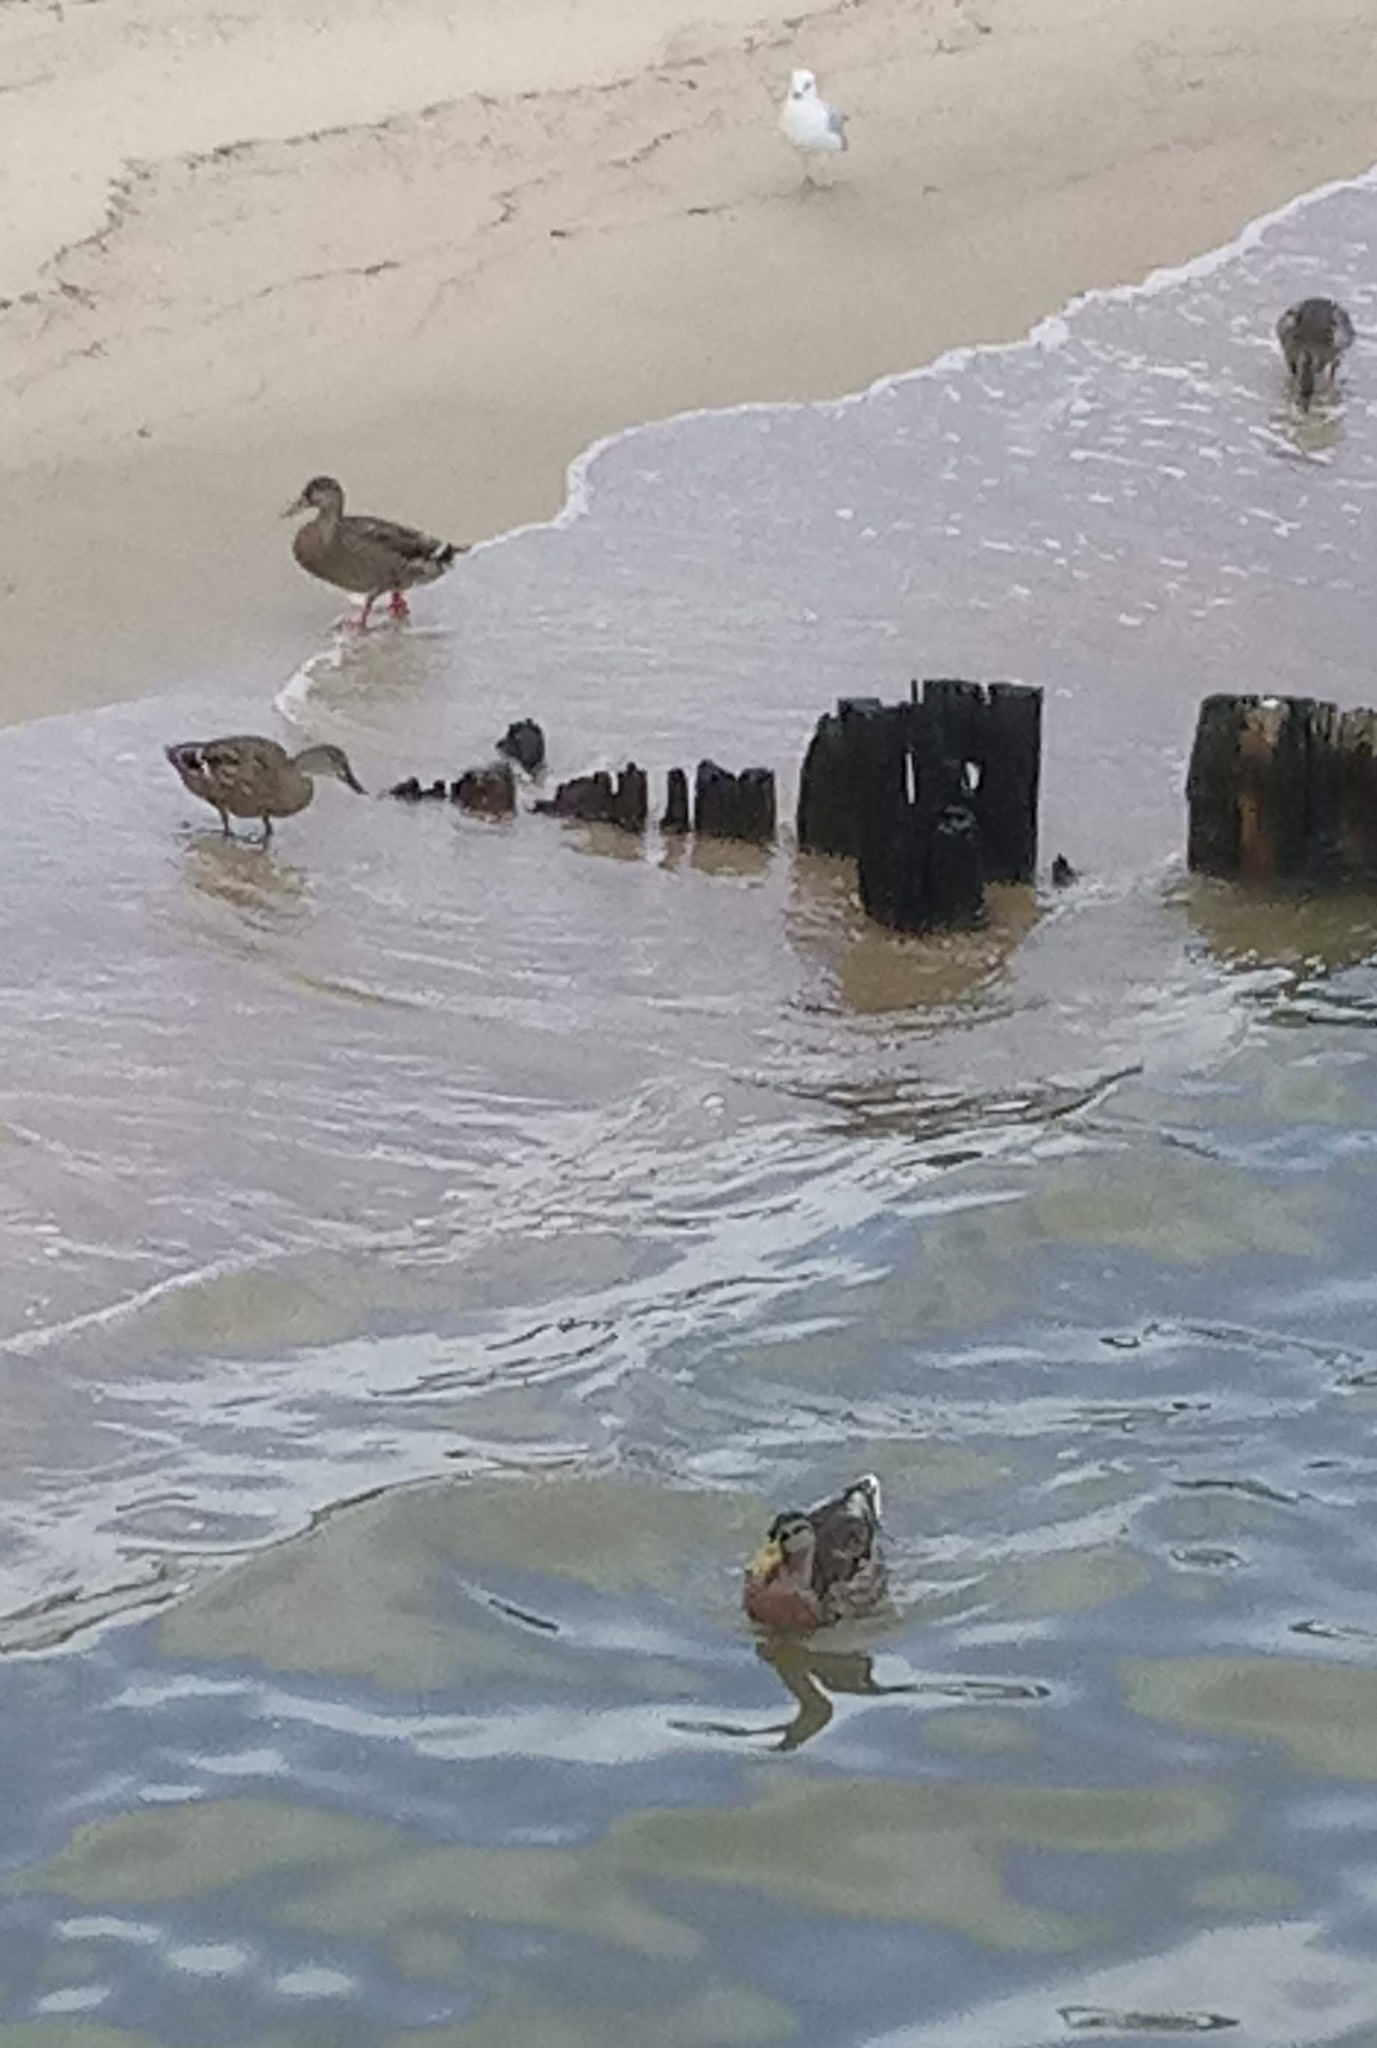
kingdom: Animalia
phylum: Chordata
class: Aves
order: Anseriformes
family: Anatidae
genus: Anas
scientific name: Anas platyrhynchos
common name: Mallard
